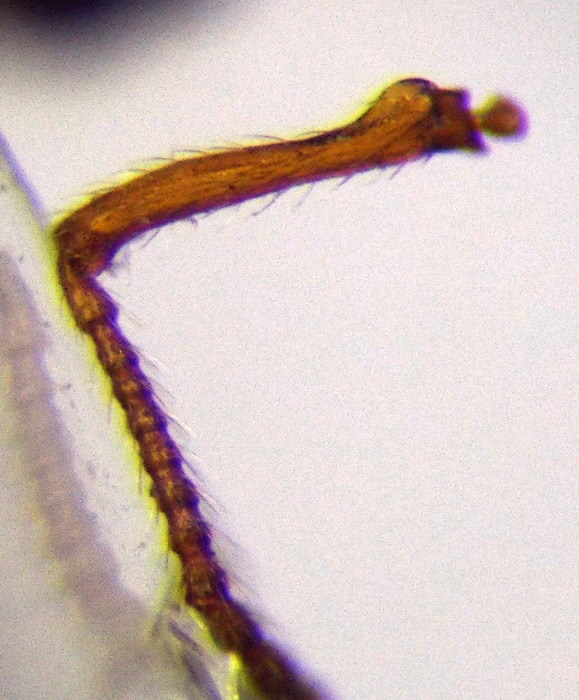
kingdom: Animalia
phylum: Arthropoda
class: Insecta
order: Hymenoptera
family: Formicidae
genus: Myrmica
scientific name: Myrmica sabuleti
